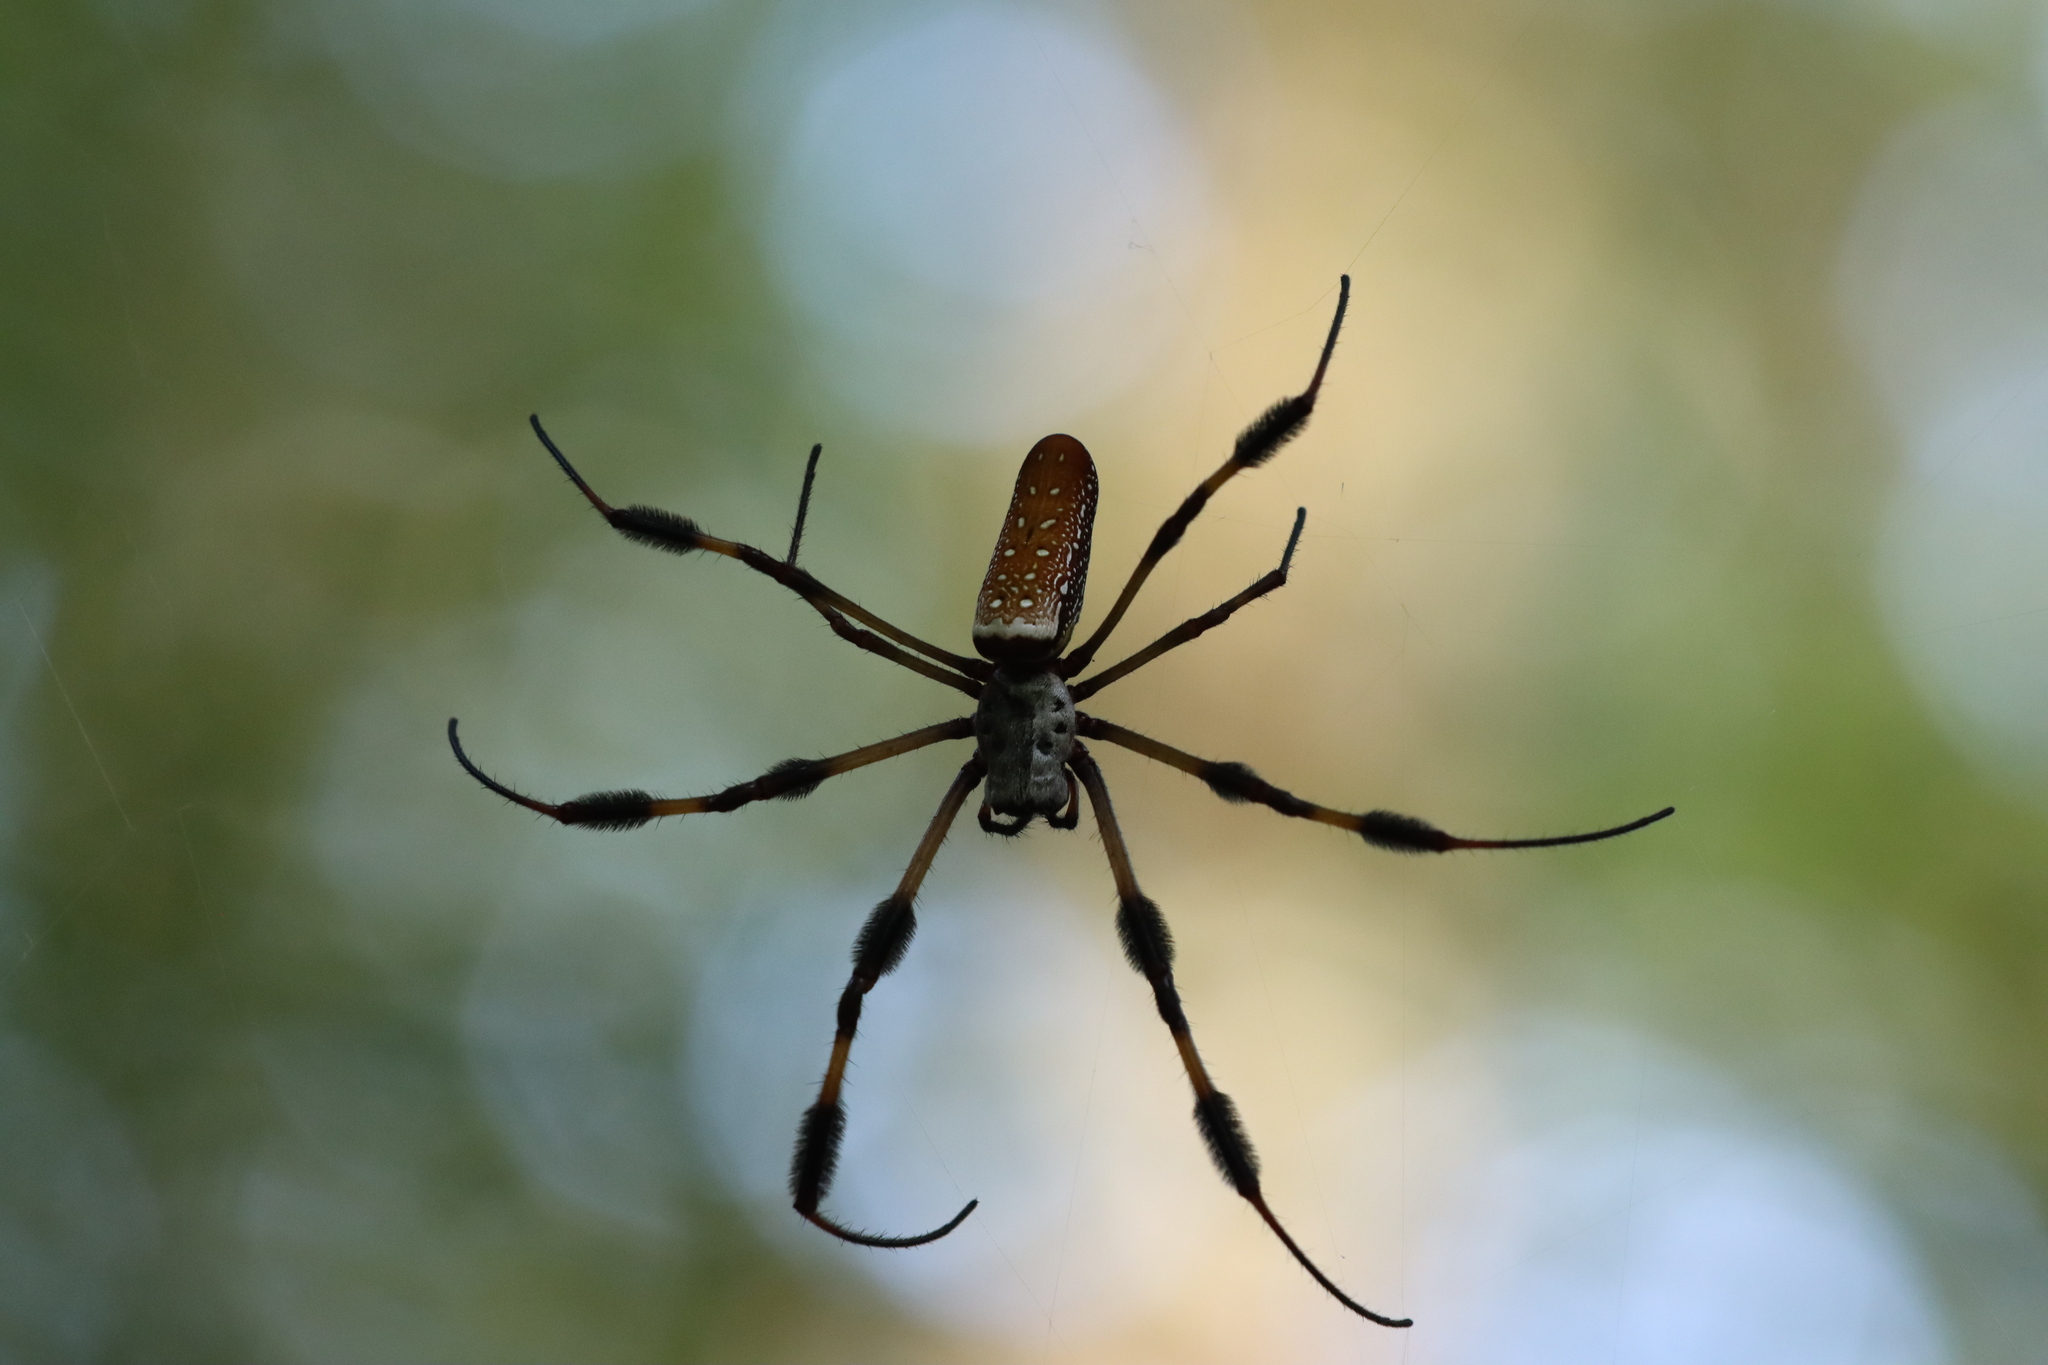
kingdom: Animalia
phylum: Arthropoda
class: Arachnida
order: Araneae
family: Araneidae
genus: Trichonephila
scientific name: Trichonephila clavipes
